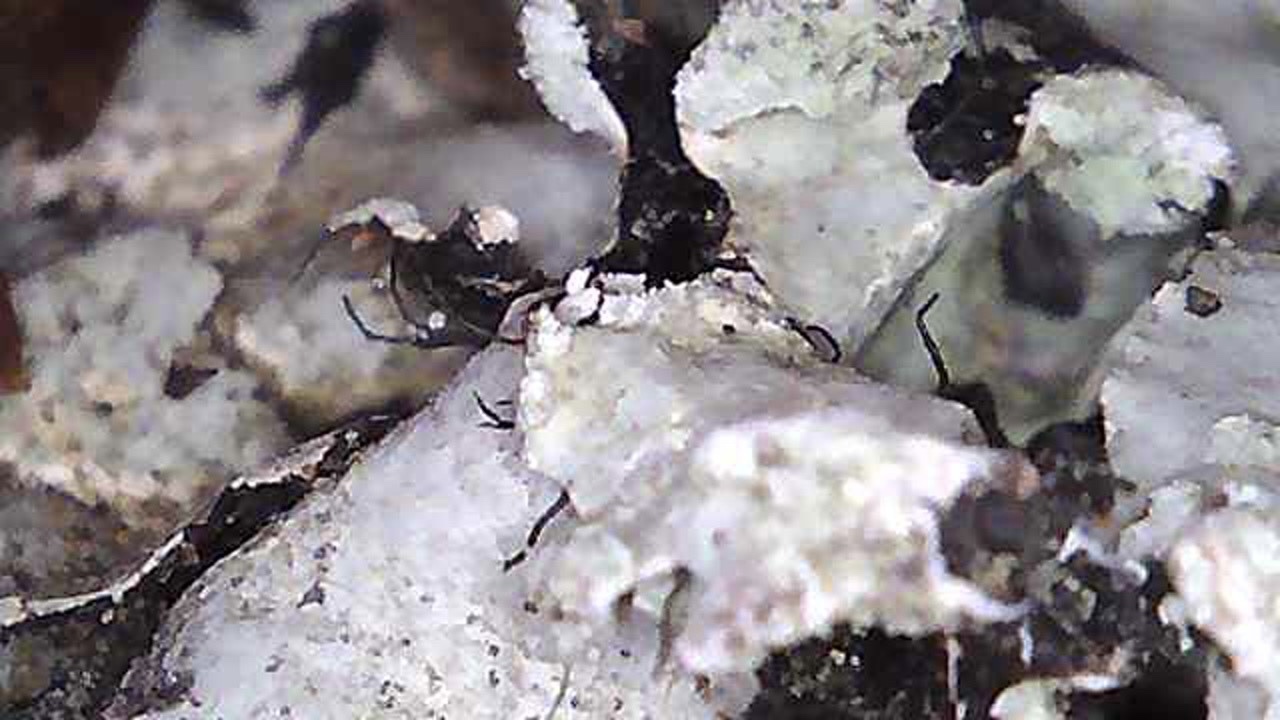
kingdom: Fungi
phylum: Ascomycota
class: Lecanoromycetes
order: Lecanorales
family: Parmeliaceae
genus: Parmotrema
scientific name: Parmotrema arnoldii
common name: Arnold's parmotrema lichen
